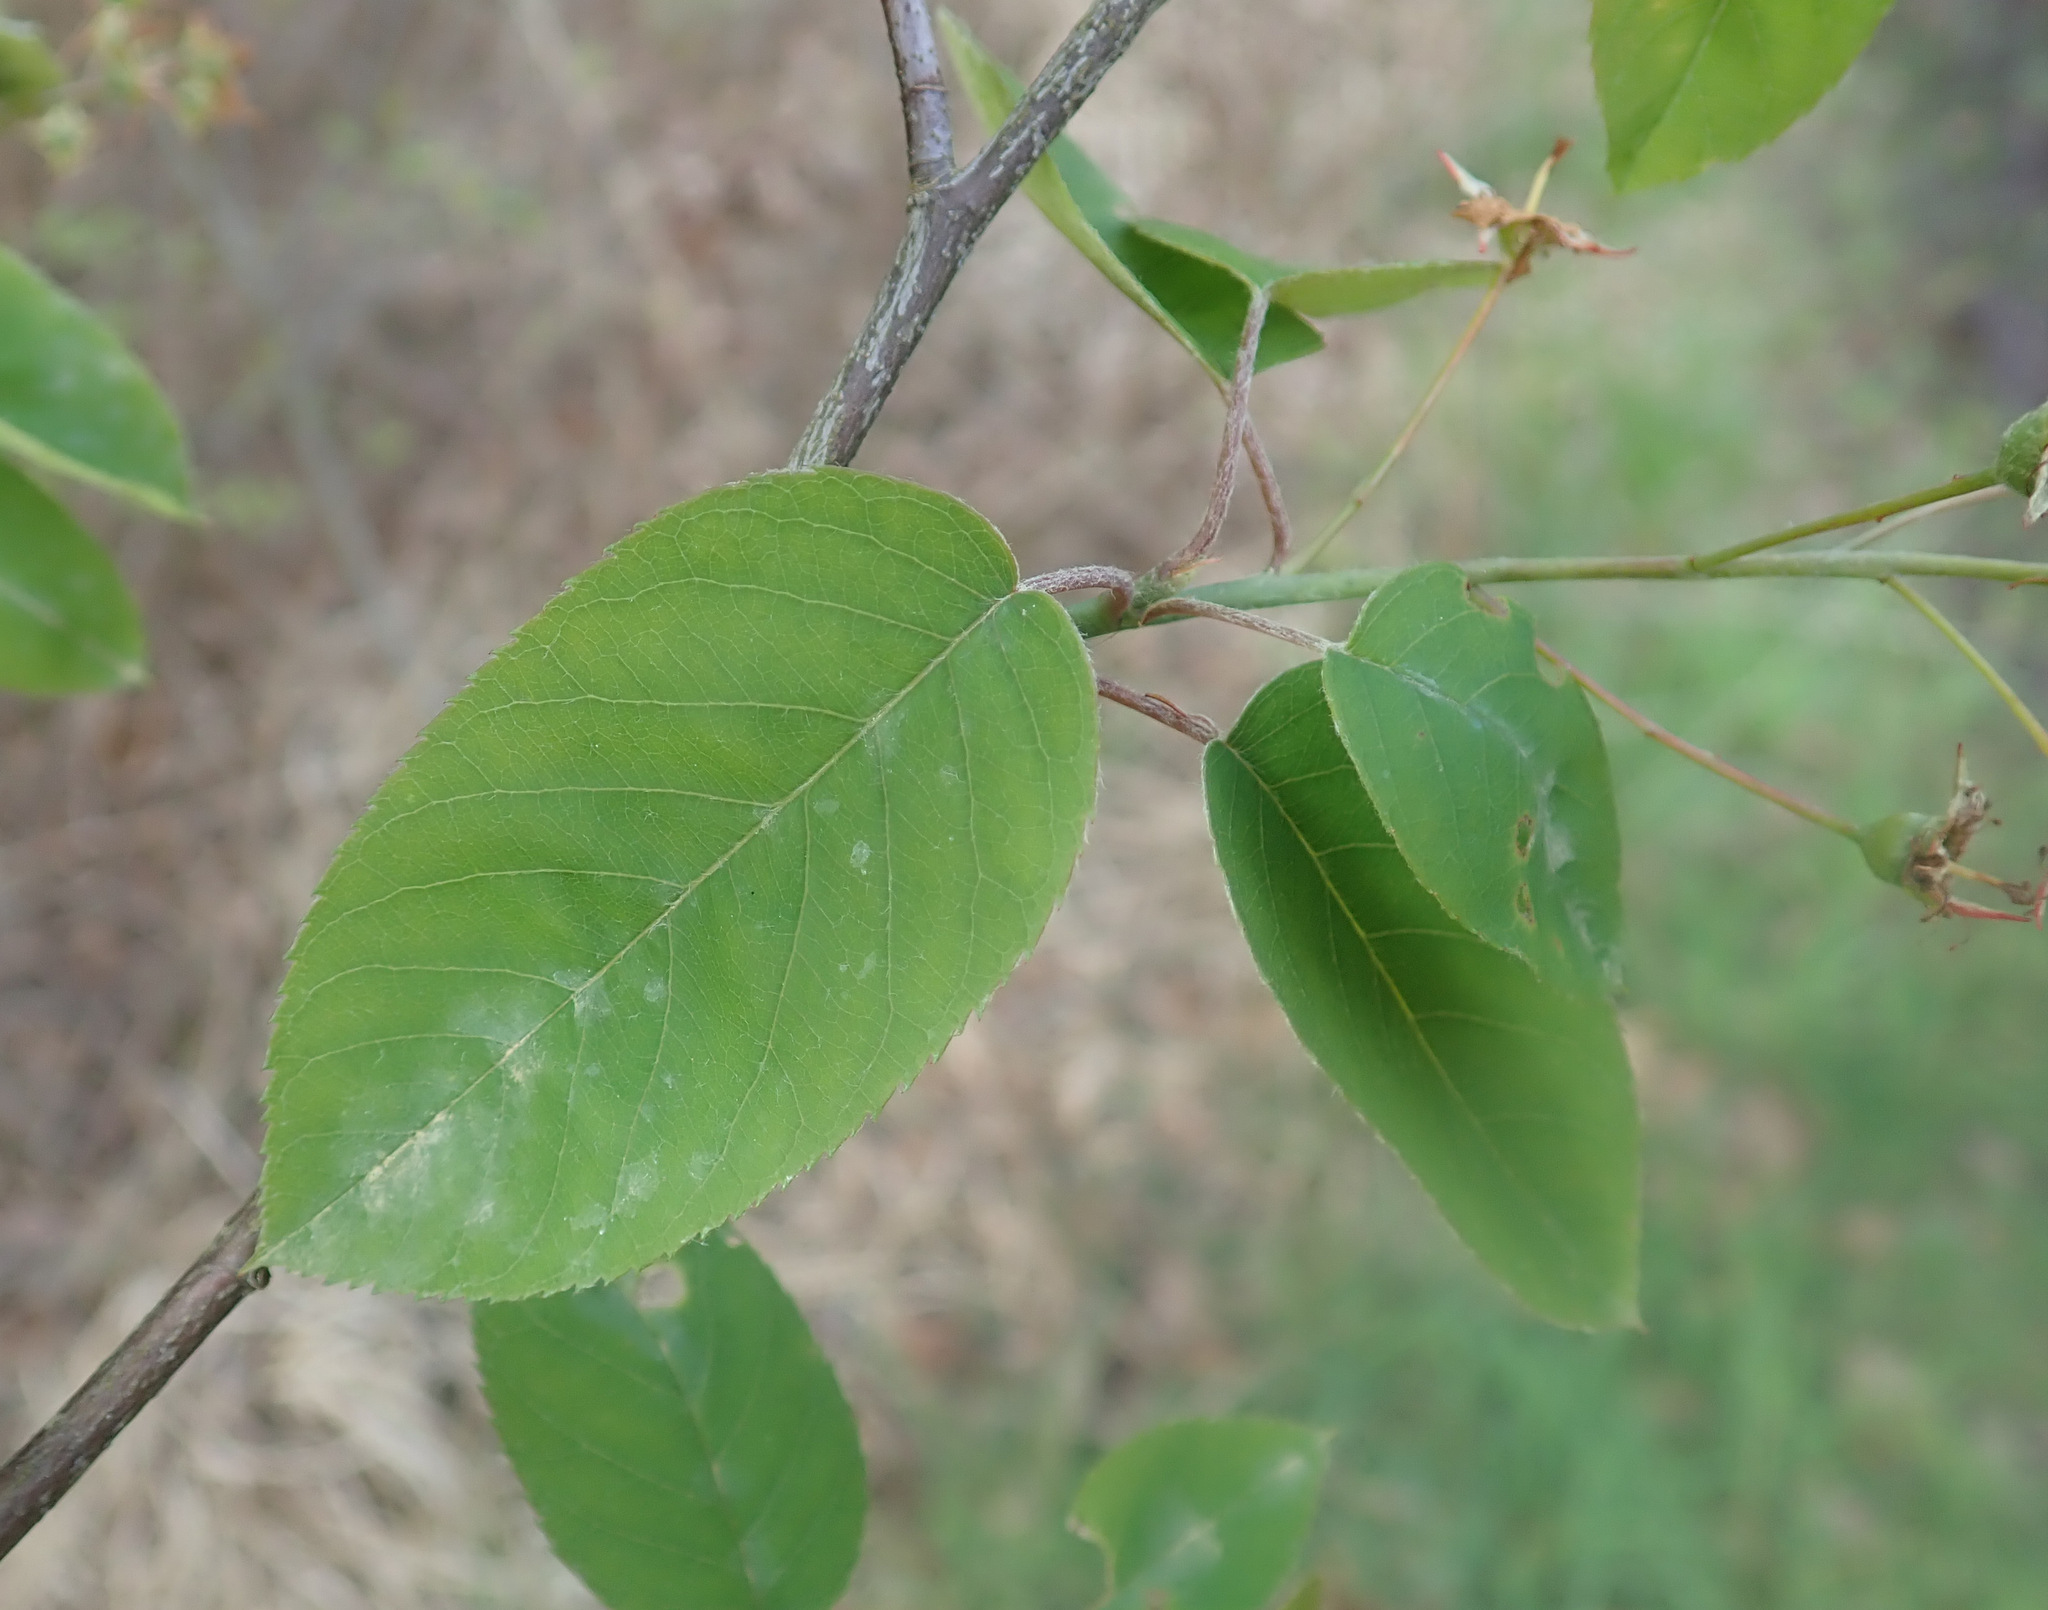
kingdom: Plantae
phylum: Tracheophyta
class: Magnoliopsida
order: Rosales
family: Rosaceae
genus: Amelanchier
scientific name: Amelanchier lamarckii
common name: Juneberry
